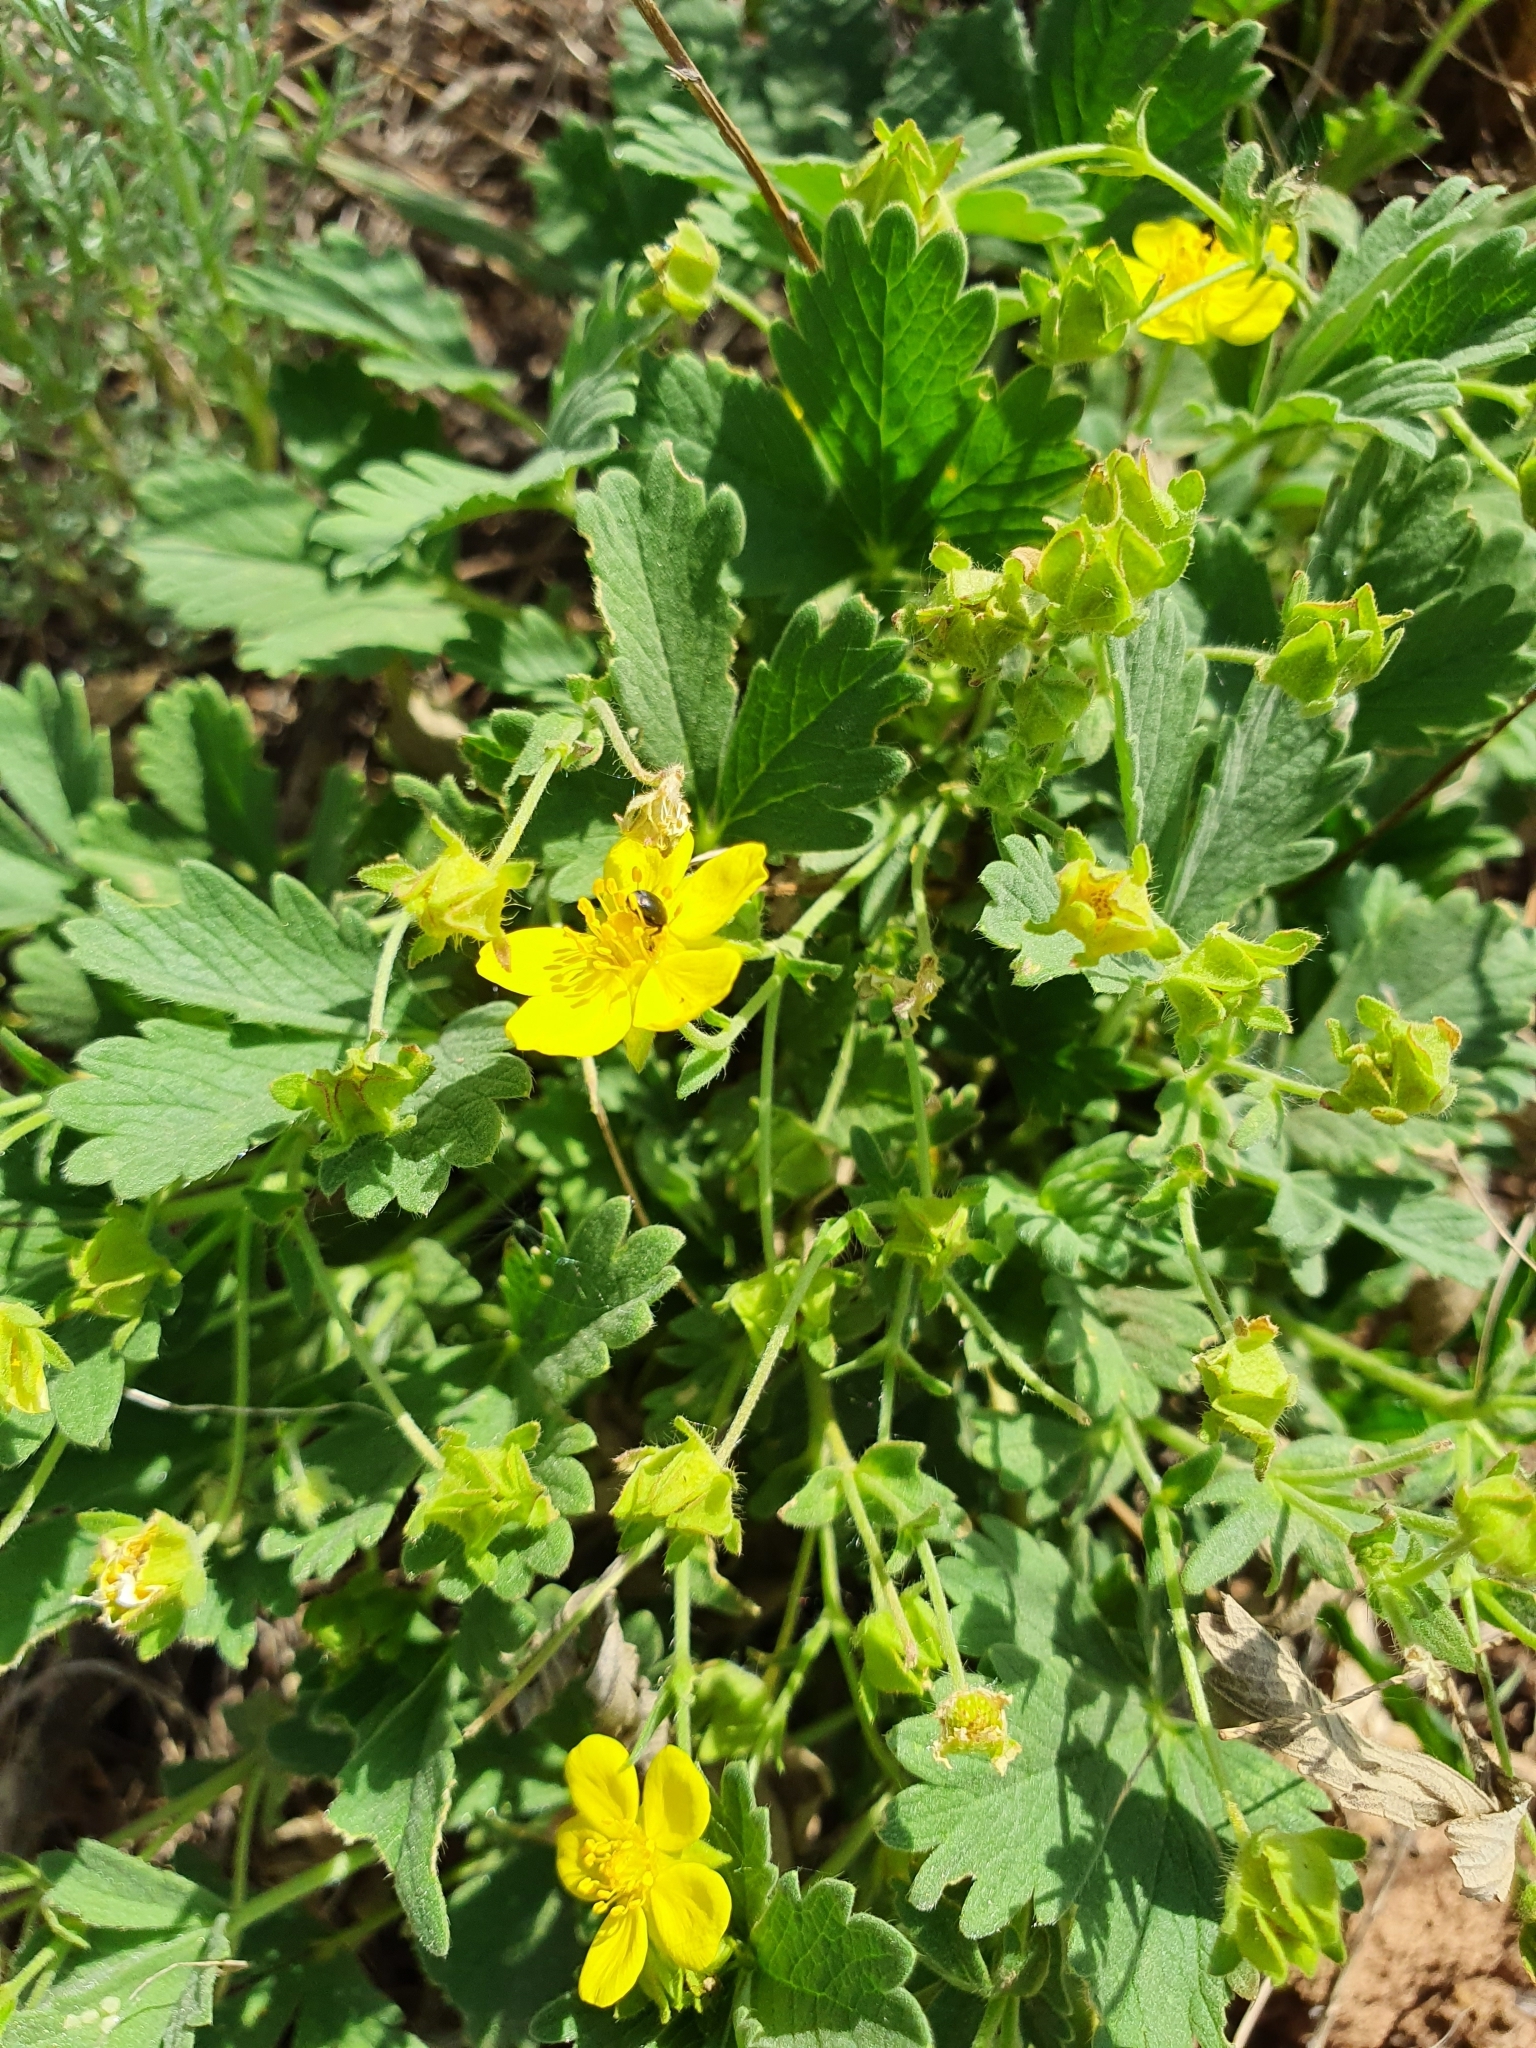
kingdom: Plantae
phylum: Tracheophyta
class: Magnoliopsida
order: Rosales
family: Rosaceae
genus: Potentilla
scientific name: Potentilla incana
